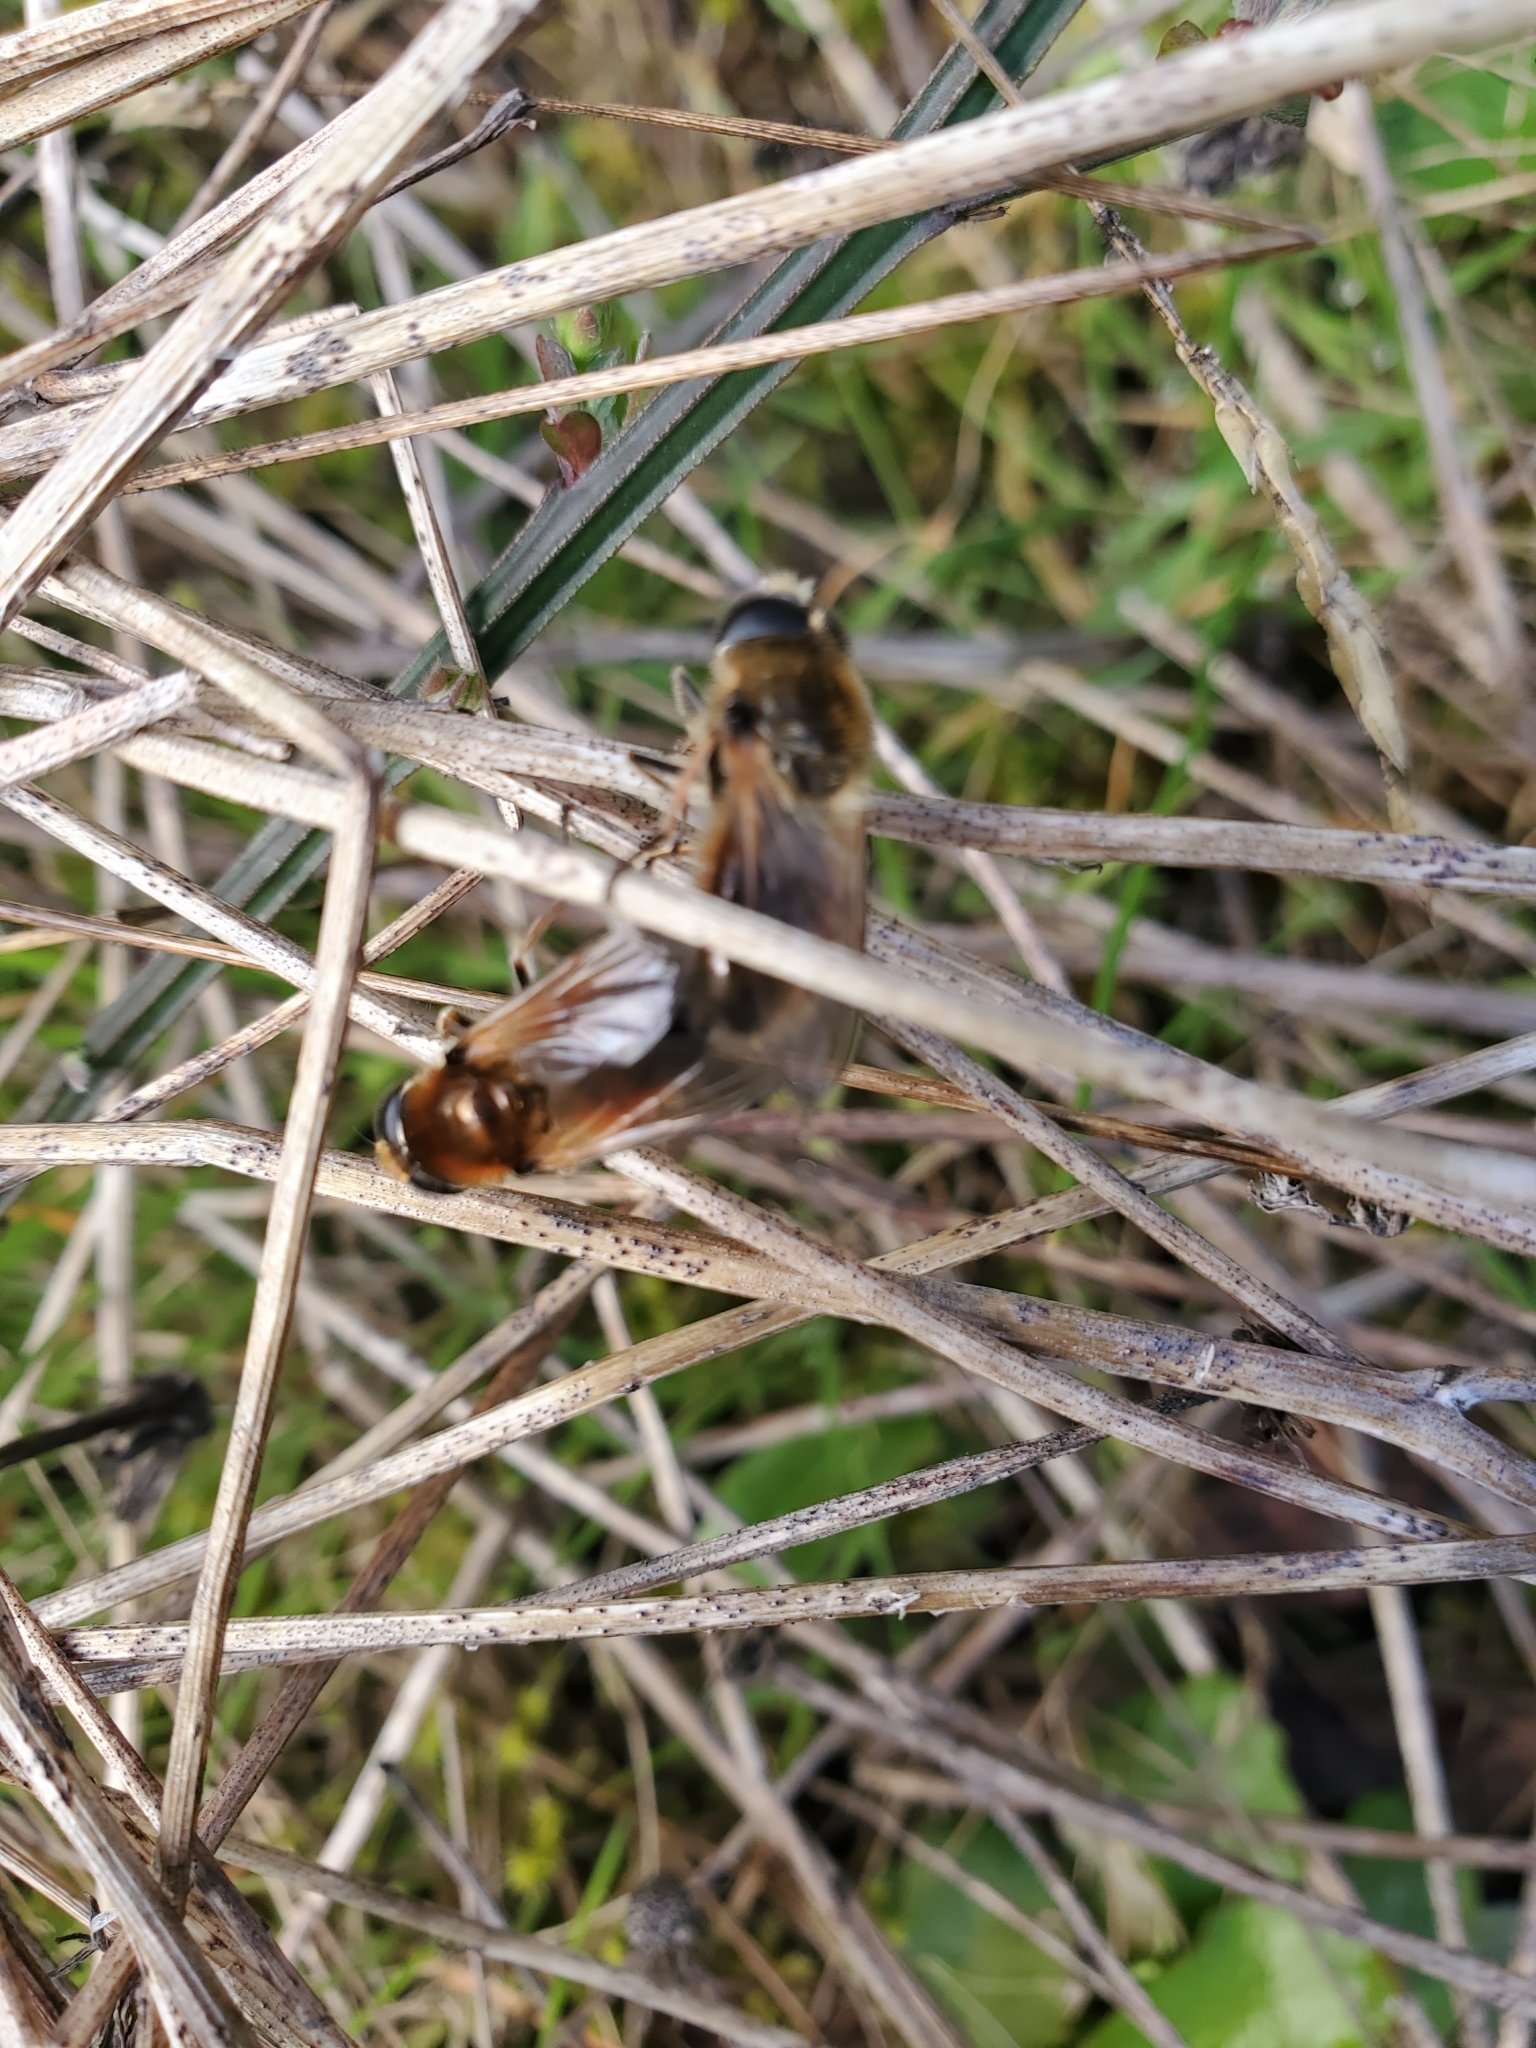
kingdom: Animalia
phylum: Arthropoda
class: Insecta
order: Diptera
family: Syrphidae
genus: Cheilosia
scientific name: Cheilosia corydon
